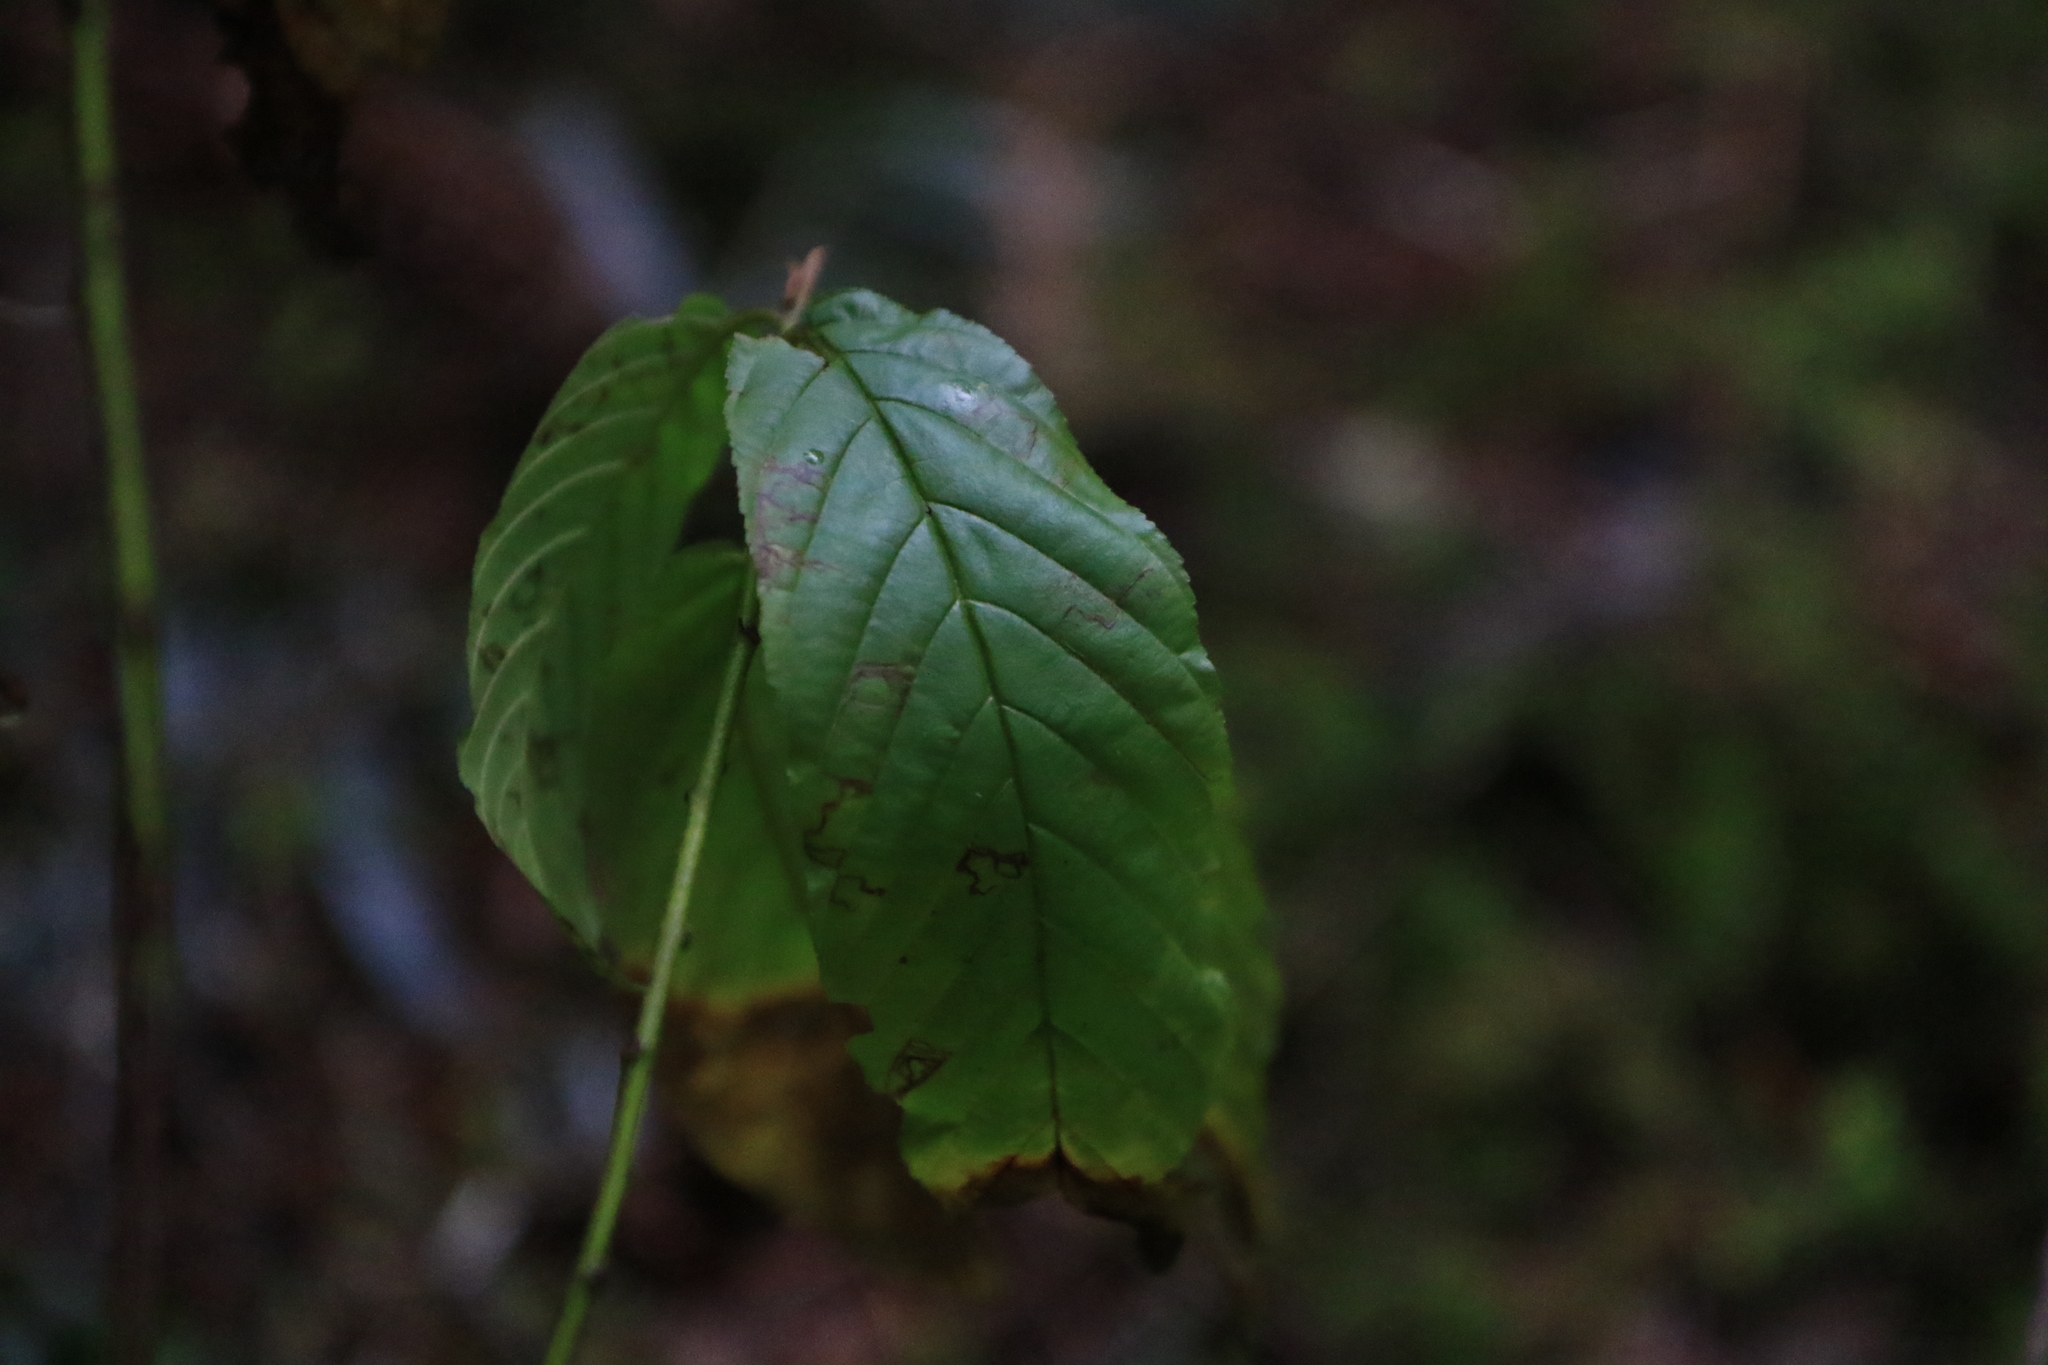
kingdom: Plantae
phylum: Tracheophyta
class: Magnoliopsida
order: Rosales
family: Rhamnaceae
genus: Frangula
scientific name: Frangula purshiana
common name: Cascara buckthorn
